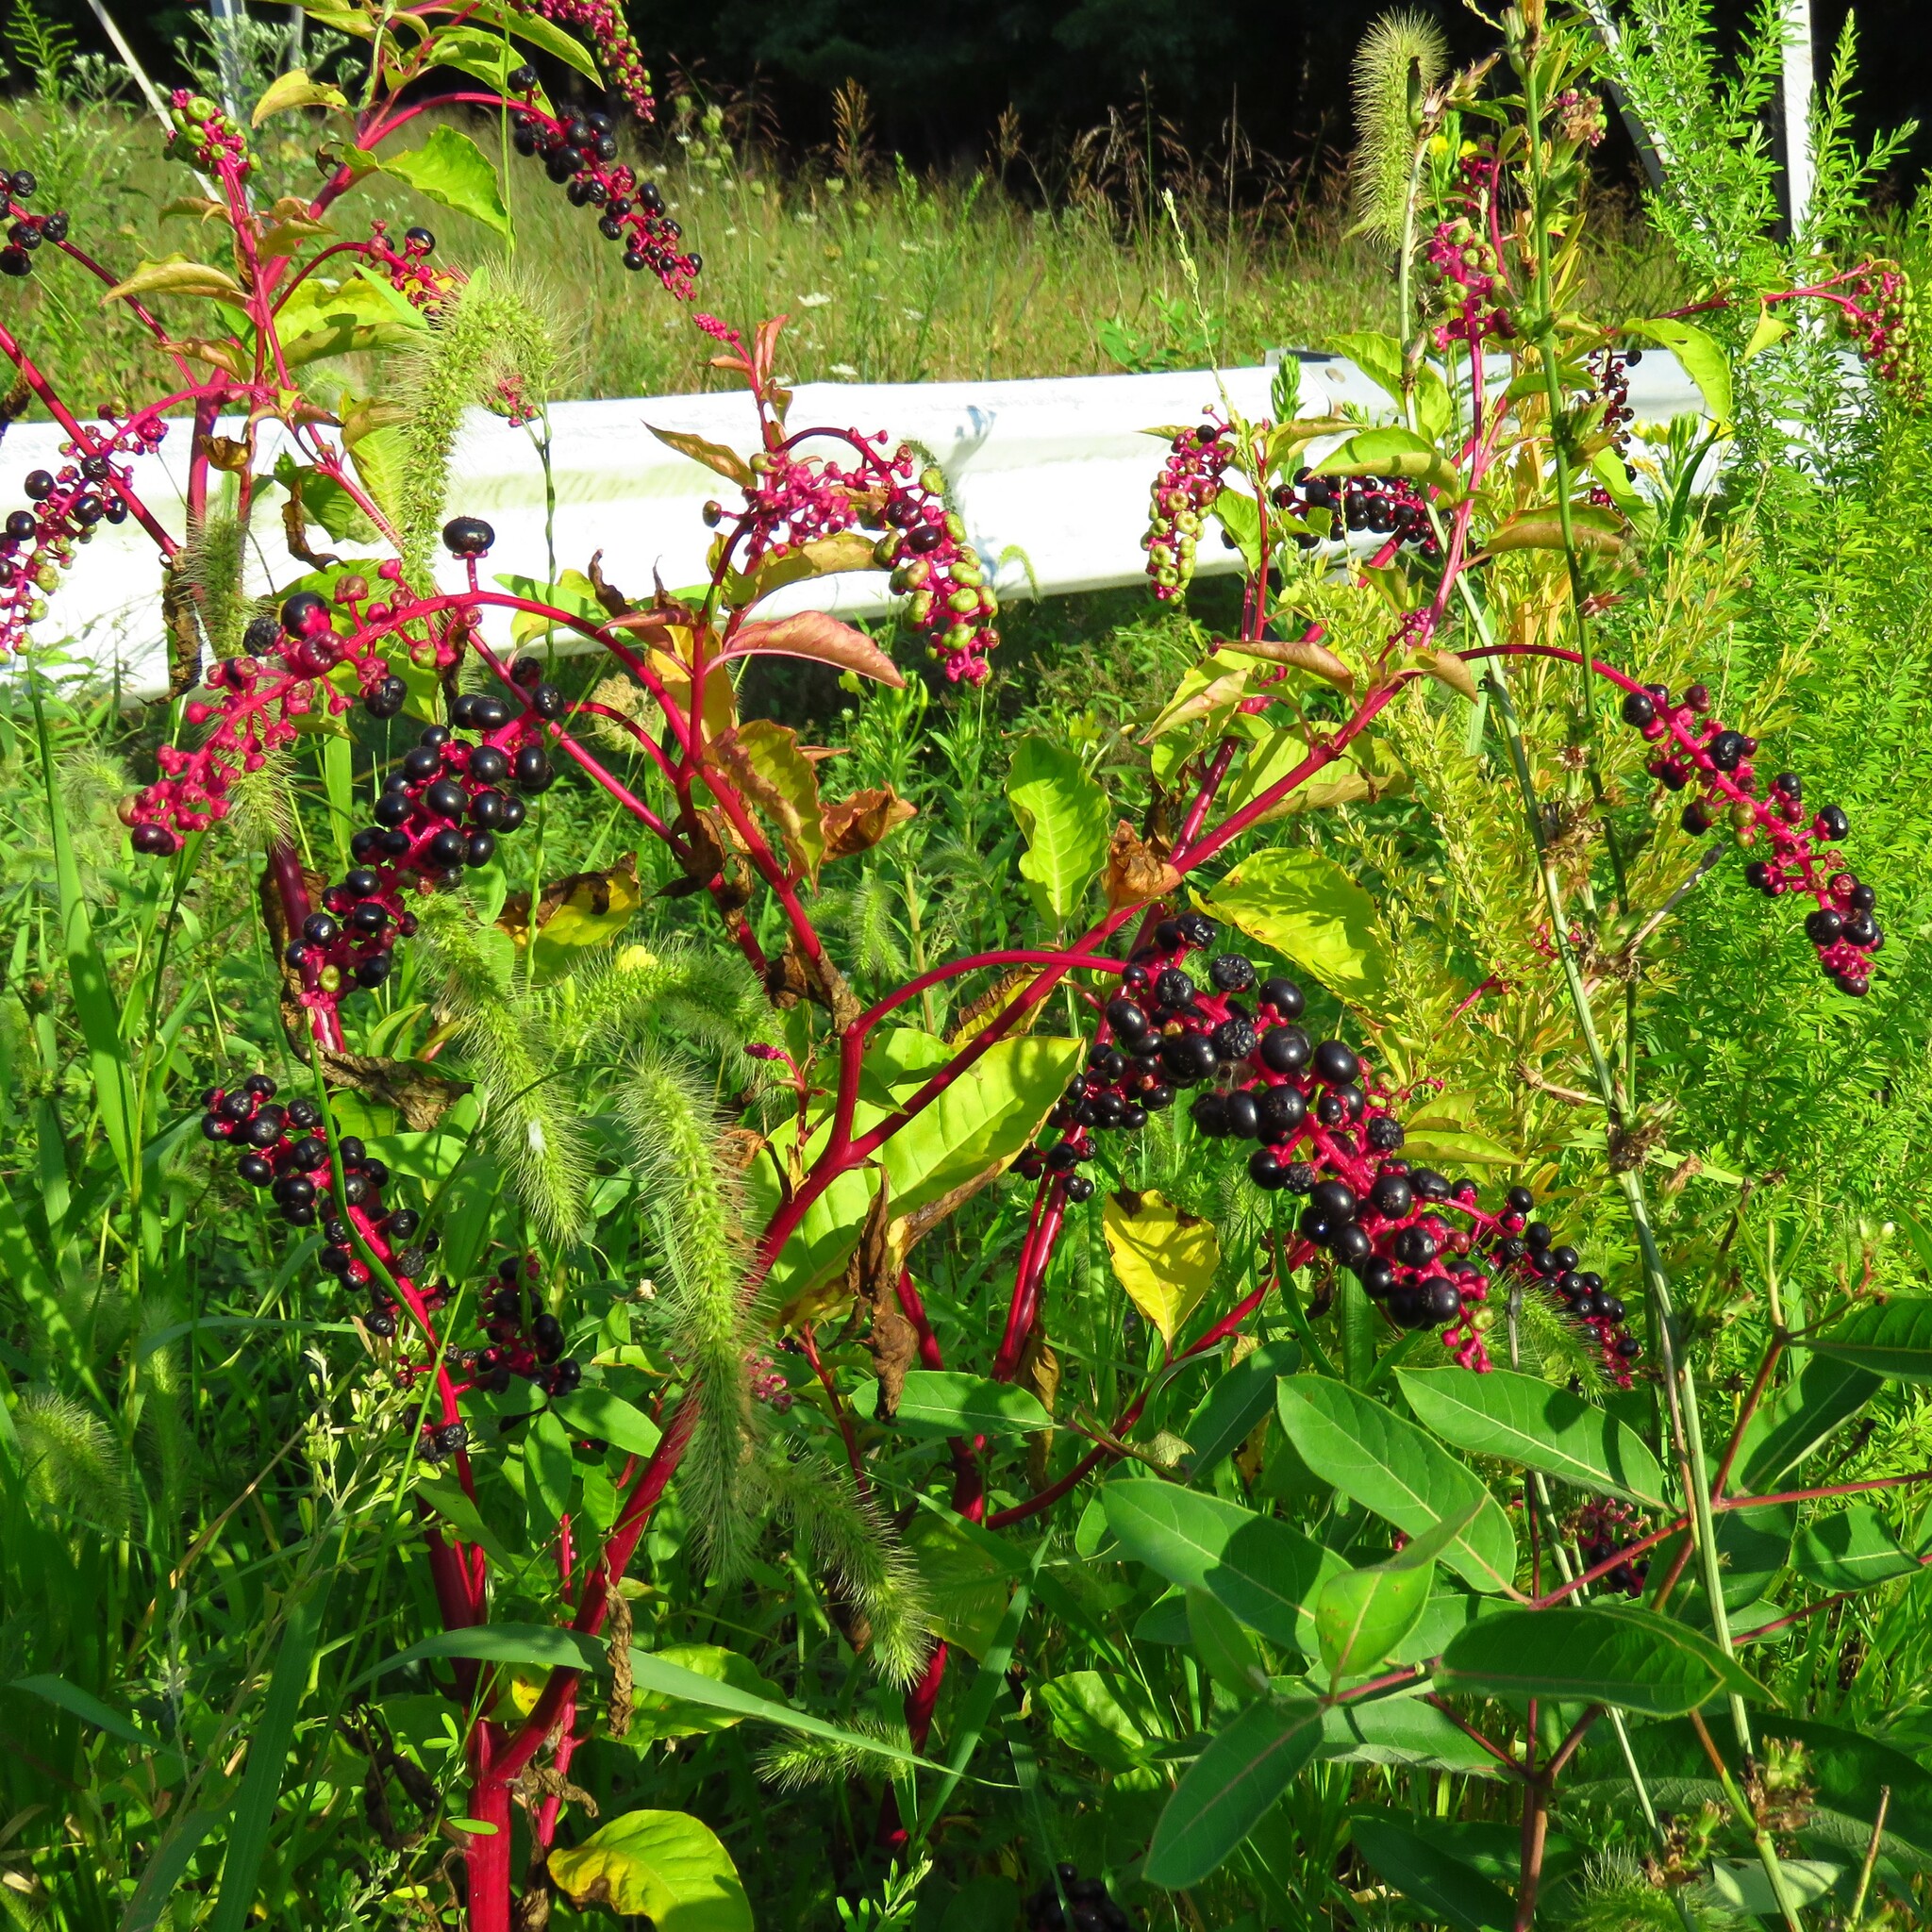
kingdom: Plantae
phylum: Tracheophyta
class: Magnoliopsida
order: Caryophyllales
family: Phytolaccaceae
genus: Phytolacca
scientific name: Phytolacca americana
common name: American pokeweed
